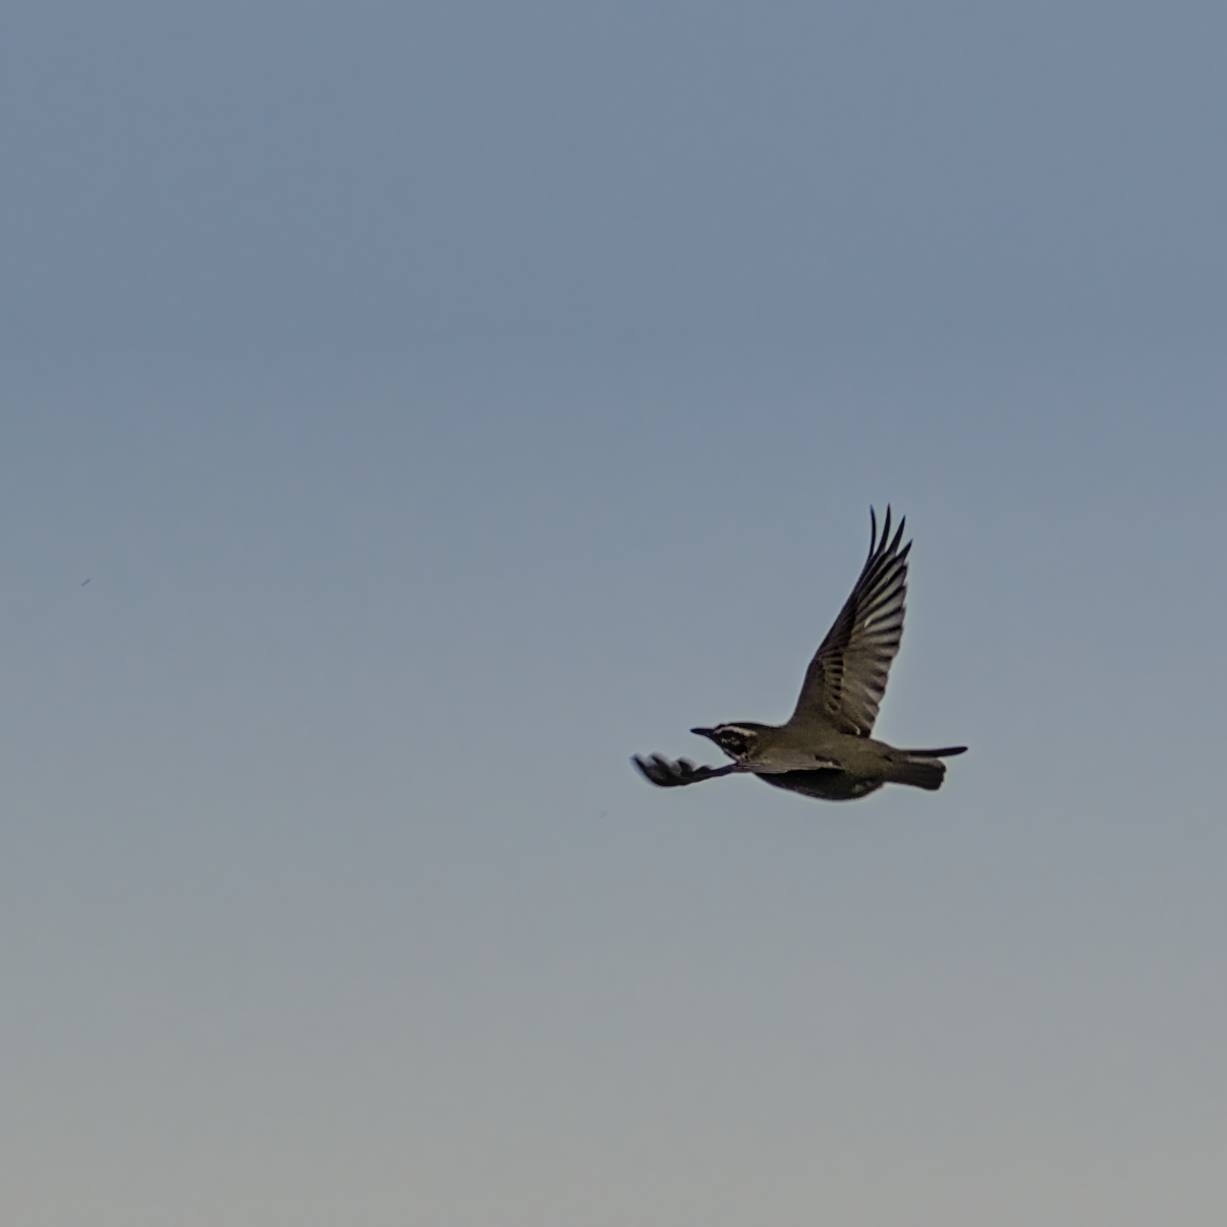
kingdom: Animalia
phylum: Chordata
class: Aves
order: Passeriformes
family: Turdidae
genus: Turdus
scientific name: Turdus iliacus
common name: Redwing
